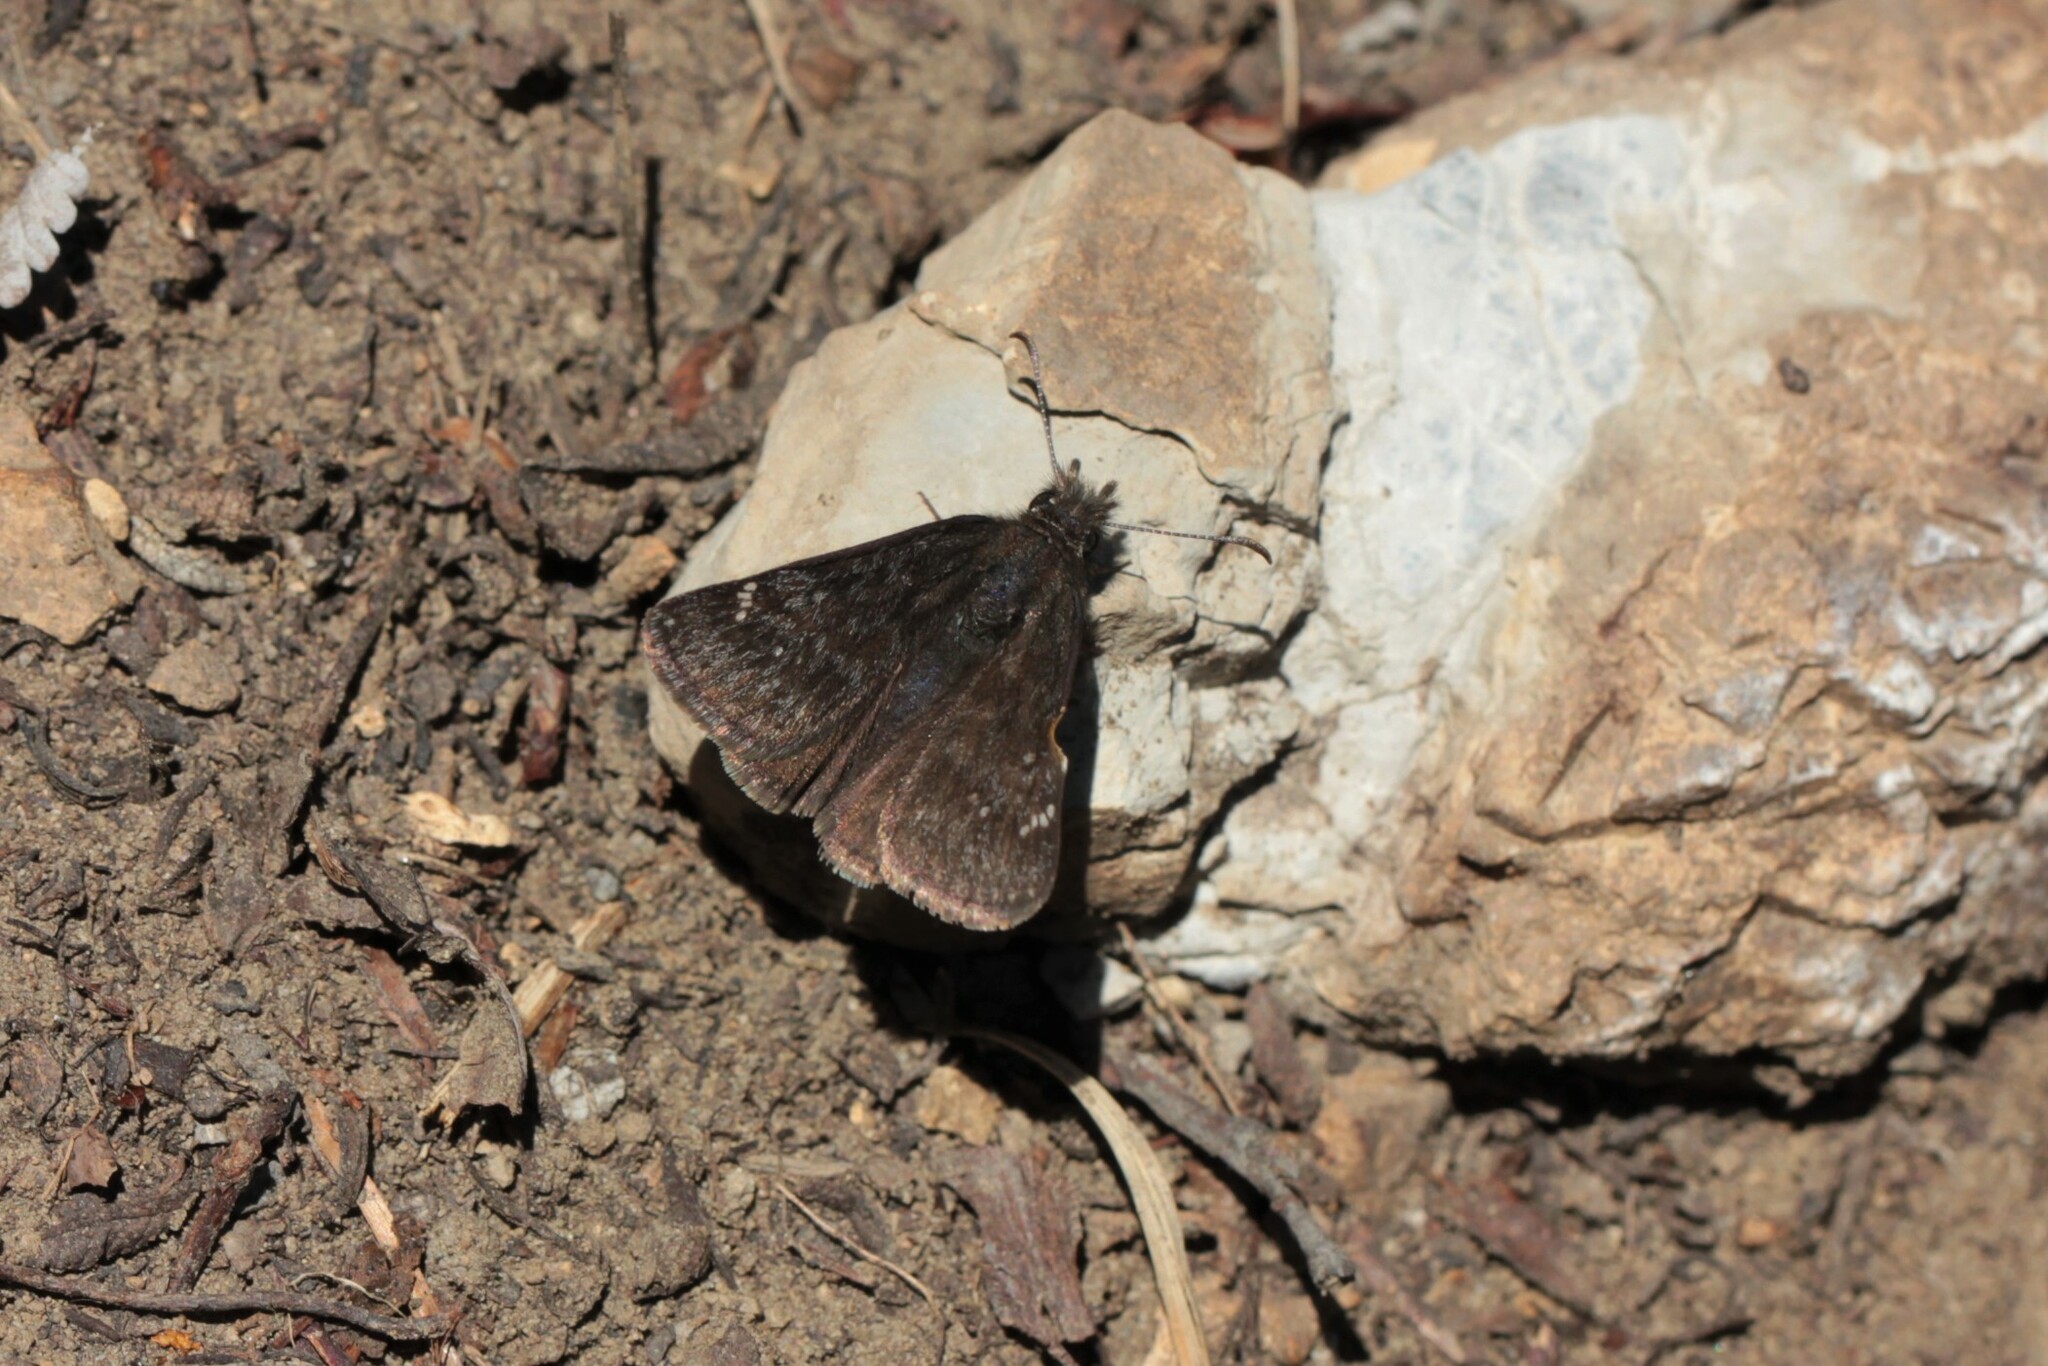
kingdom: Animalia
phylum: Arthropoda
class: Insecta
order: Lepidoptera
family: Hesperiidae
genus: Erynnis
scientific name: Erynnis persius
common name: Persius duskywing
